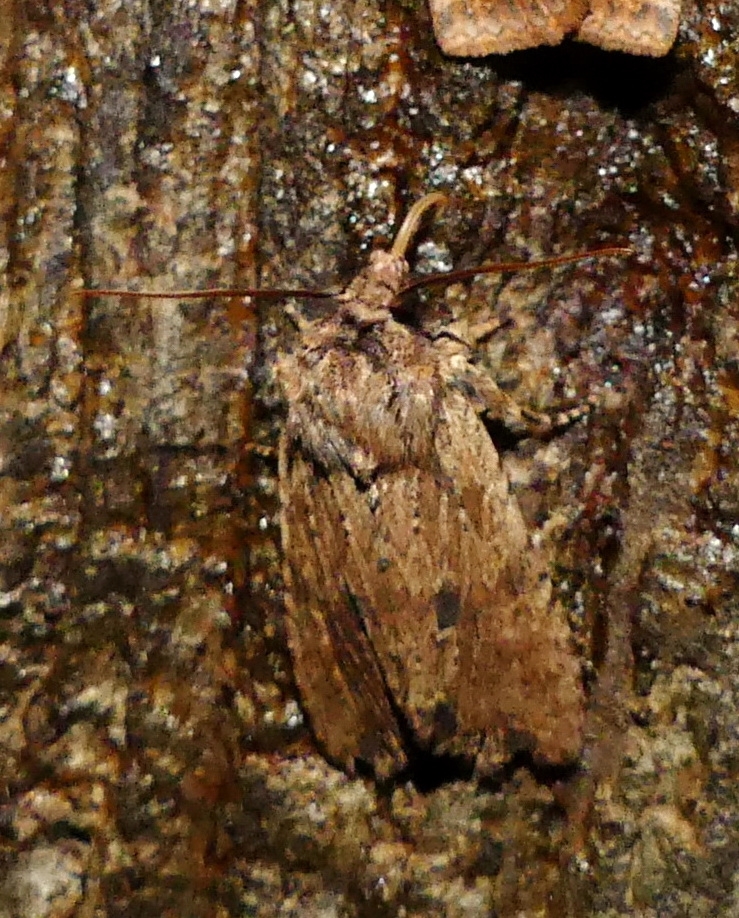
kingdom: Animalia
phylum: Arthropoda
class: Insecta
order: Lepidoptera
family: Noctuidae
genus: Lithophane
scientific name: Lithophane innominata
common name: Nameless pinion moth
